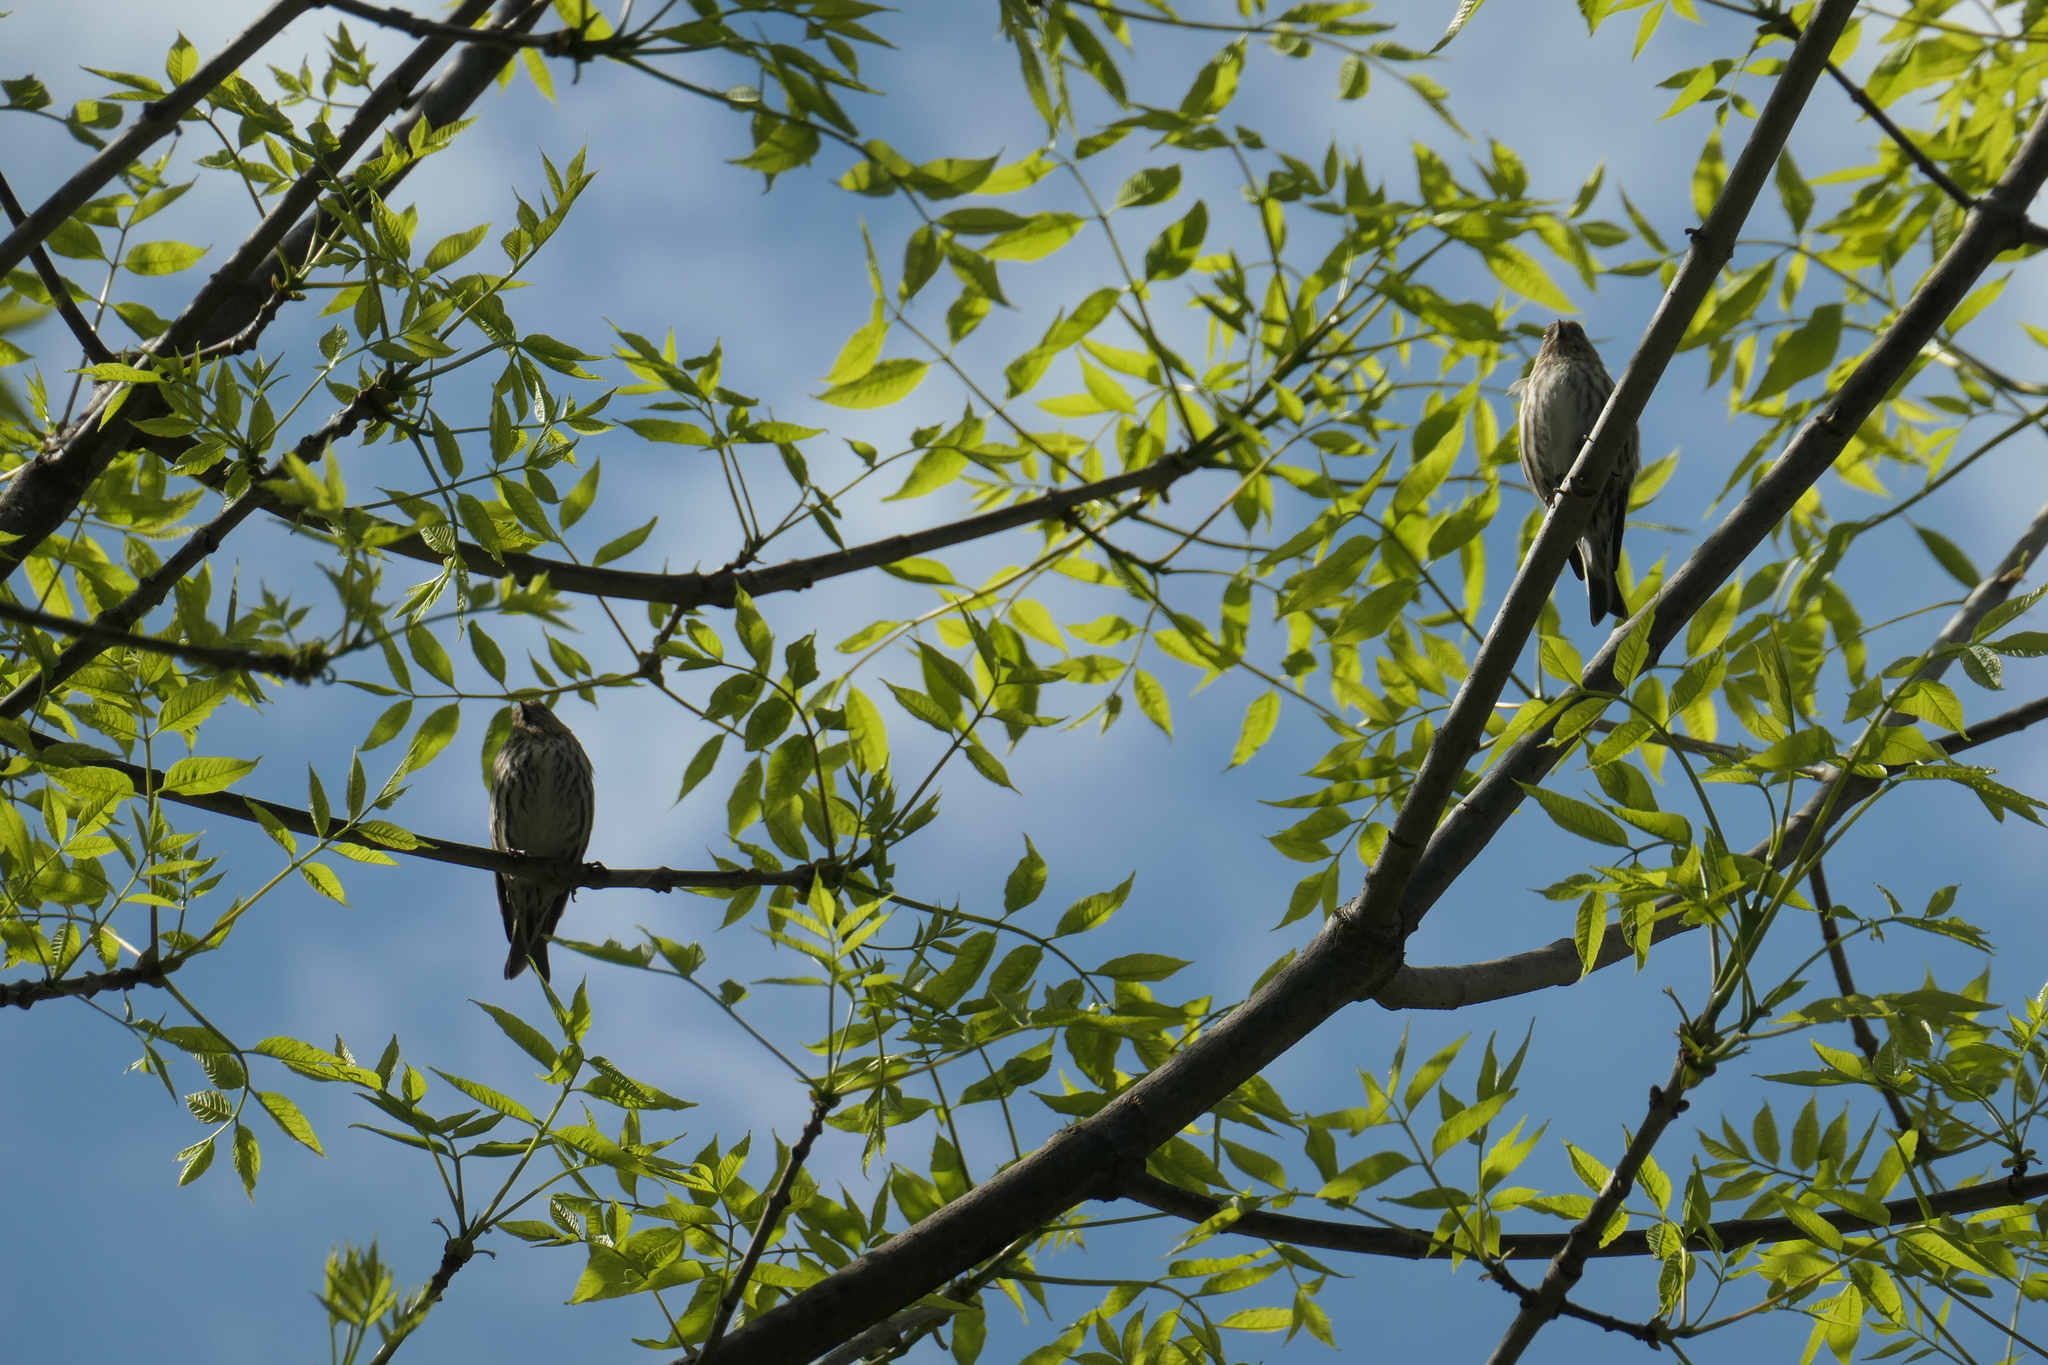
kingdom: Animalia
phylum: Chordata
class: Aves
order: Passeriformes
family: Fringillidae
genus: Spinus
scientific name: Spinus pinus
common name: Pine siskin
